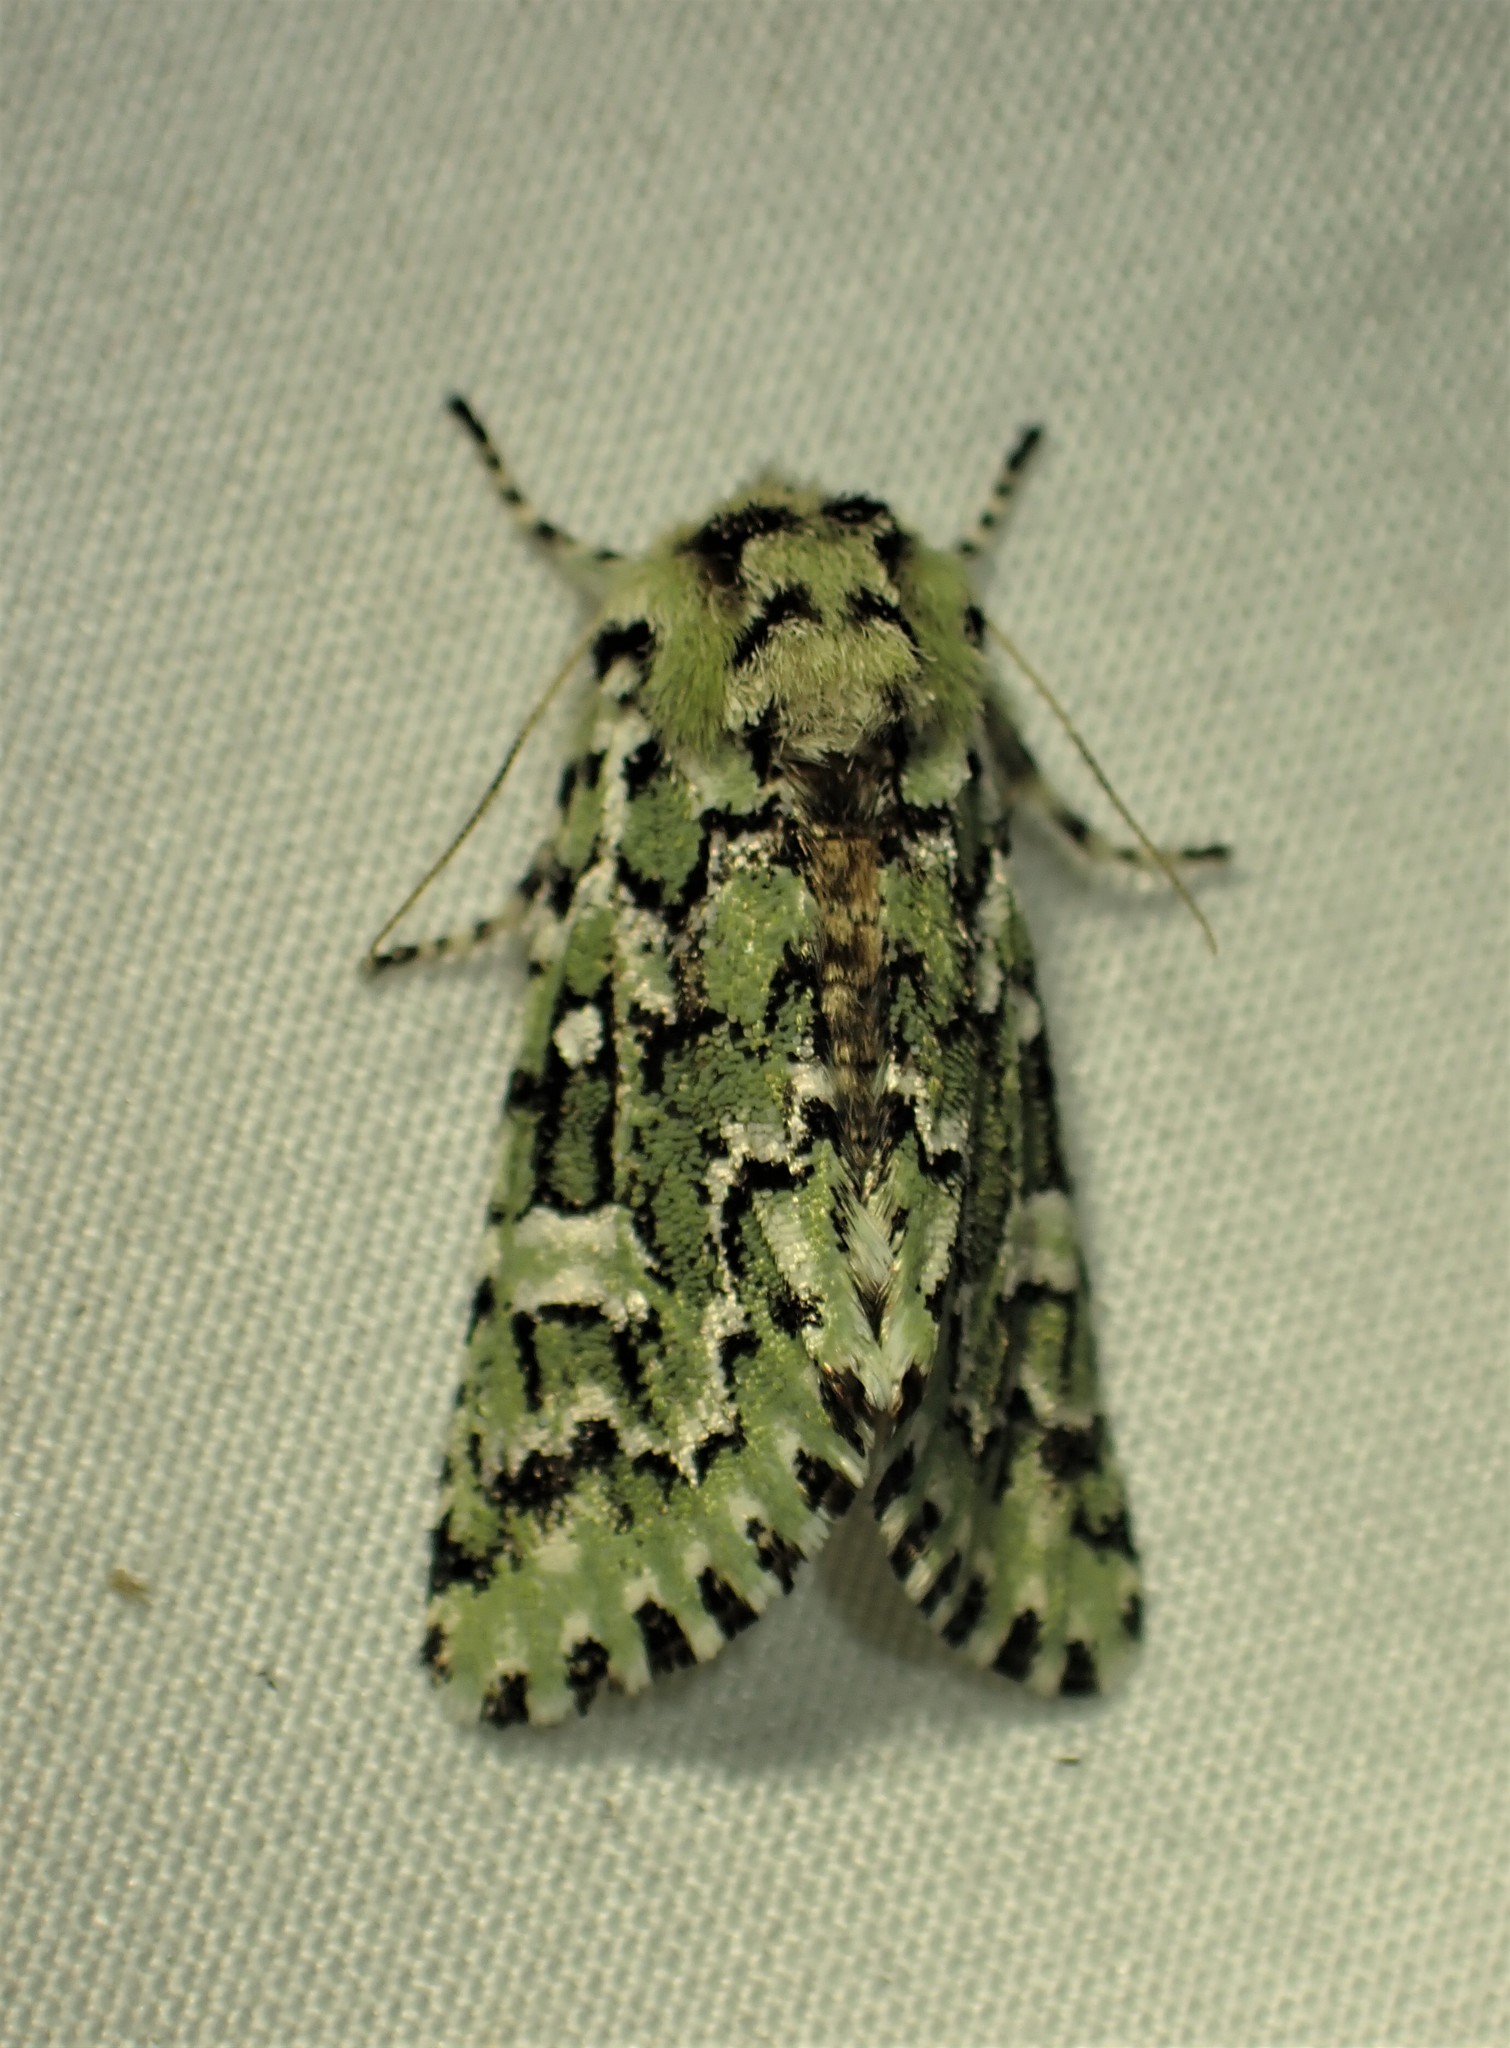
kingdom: Animalia
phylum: Arthropoda
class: Insecta
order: Lepidoptera
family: Noctuidae
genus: Feralia
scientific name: Feralia jocosa
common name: Joker
